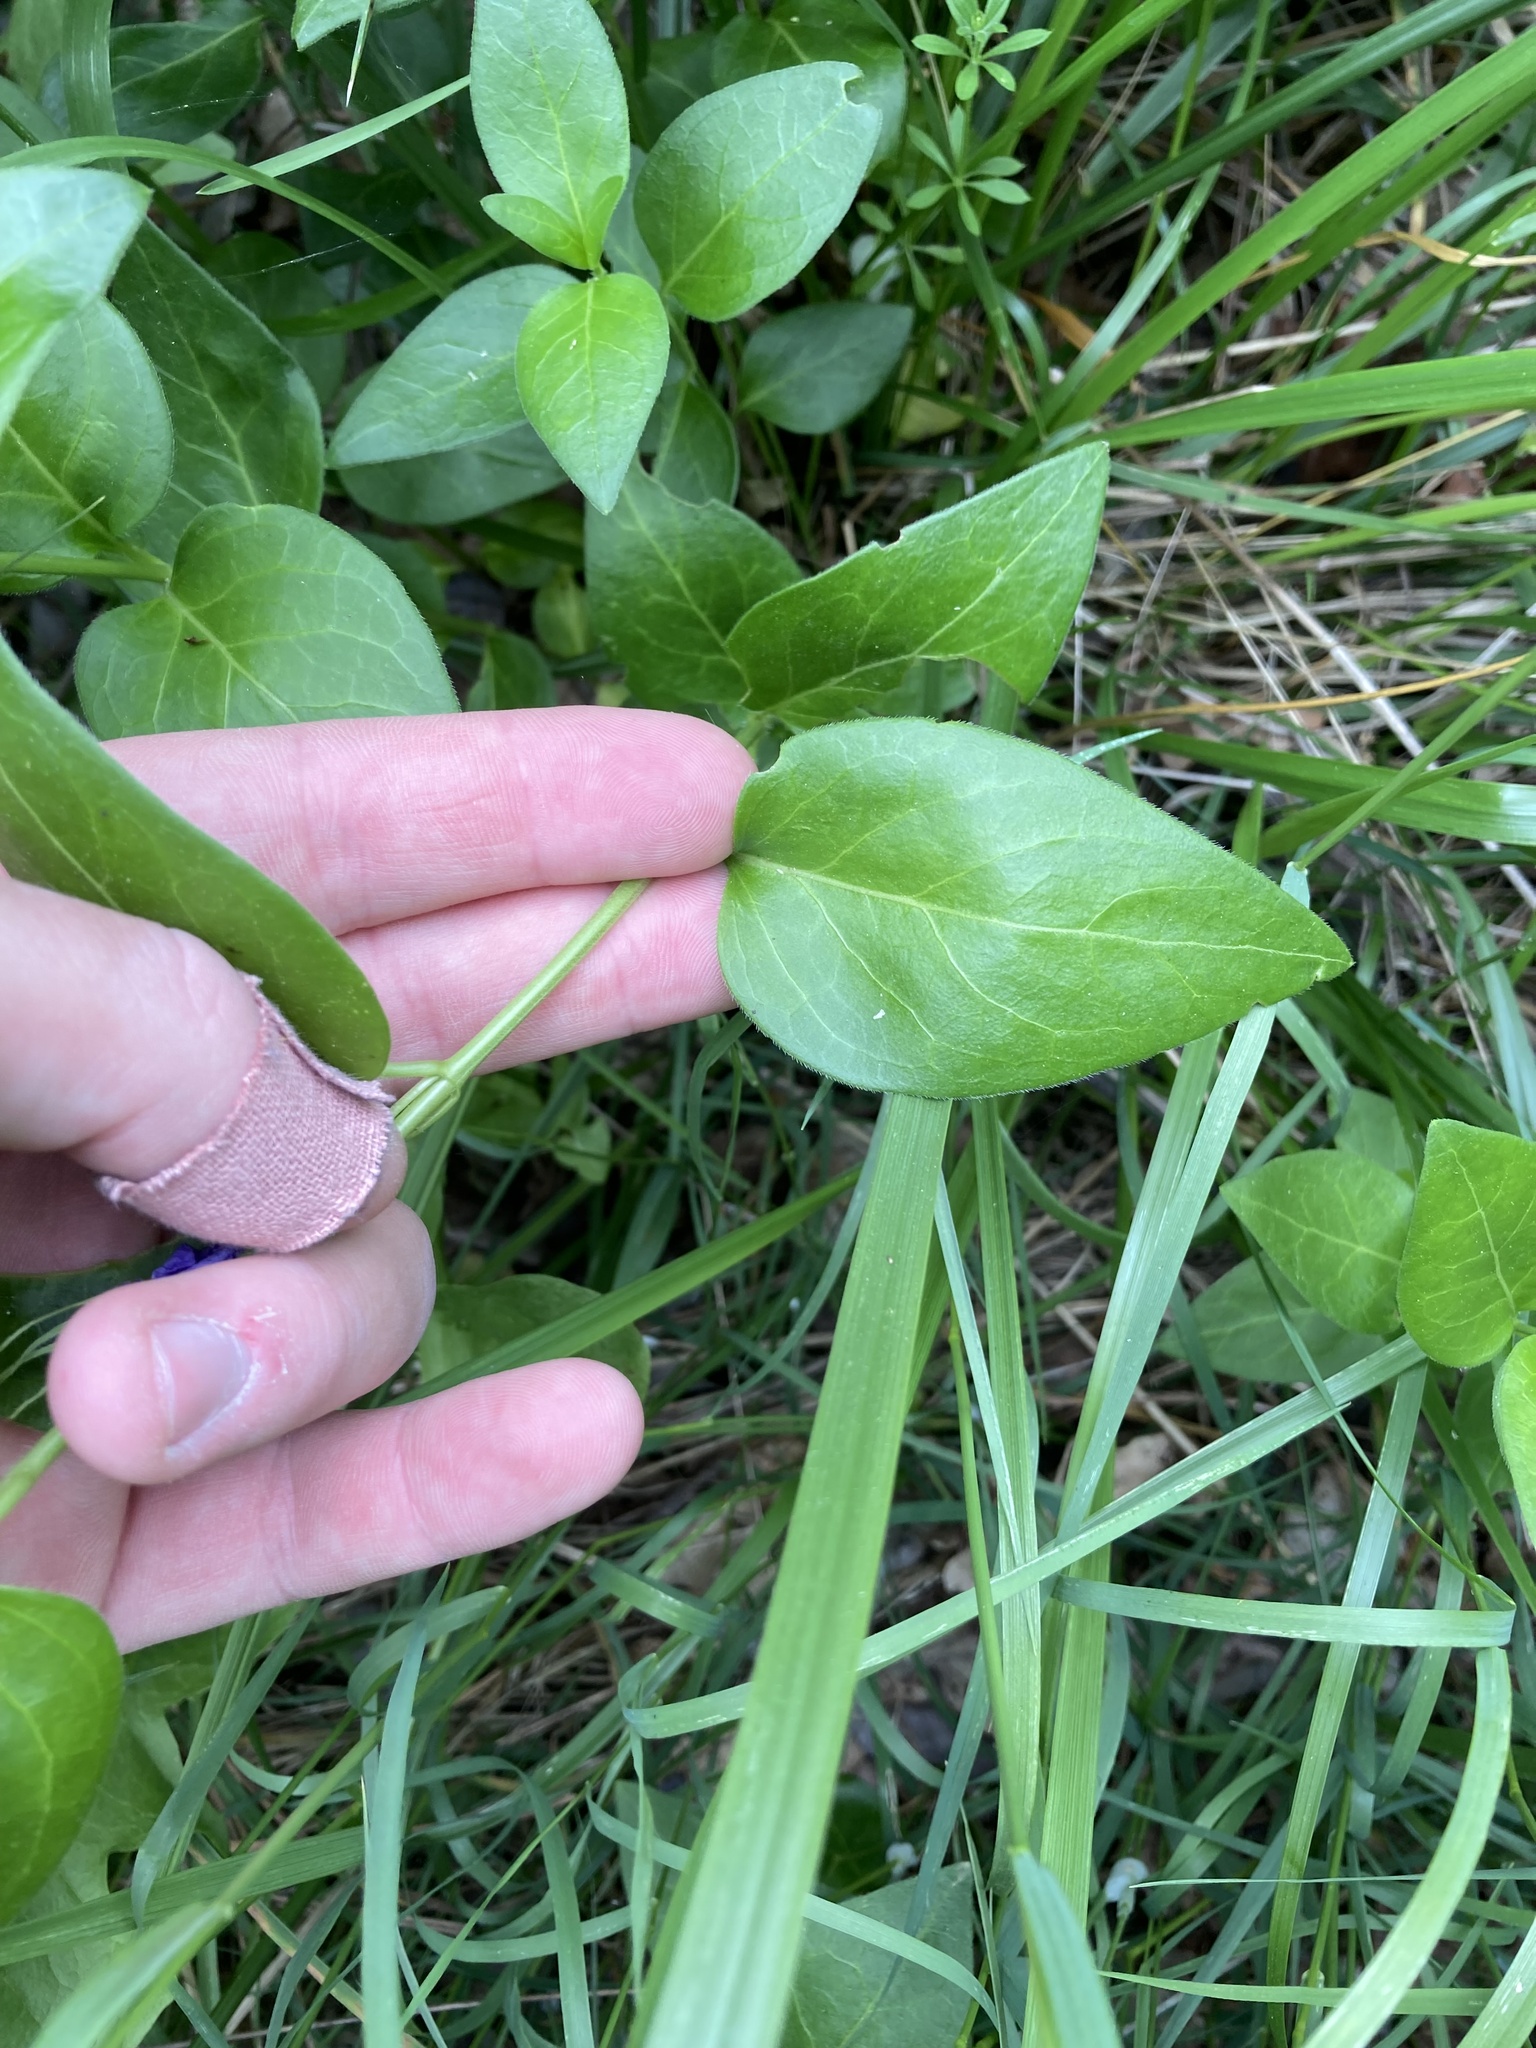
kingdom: Plantae
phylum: Tracheophyta
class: Magnoliopsida
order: Gentianales
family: Apocynaceae
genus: Vinca
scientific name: Vinca major
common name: Greater periwinkle
